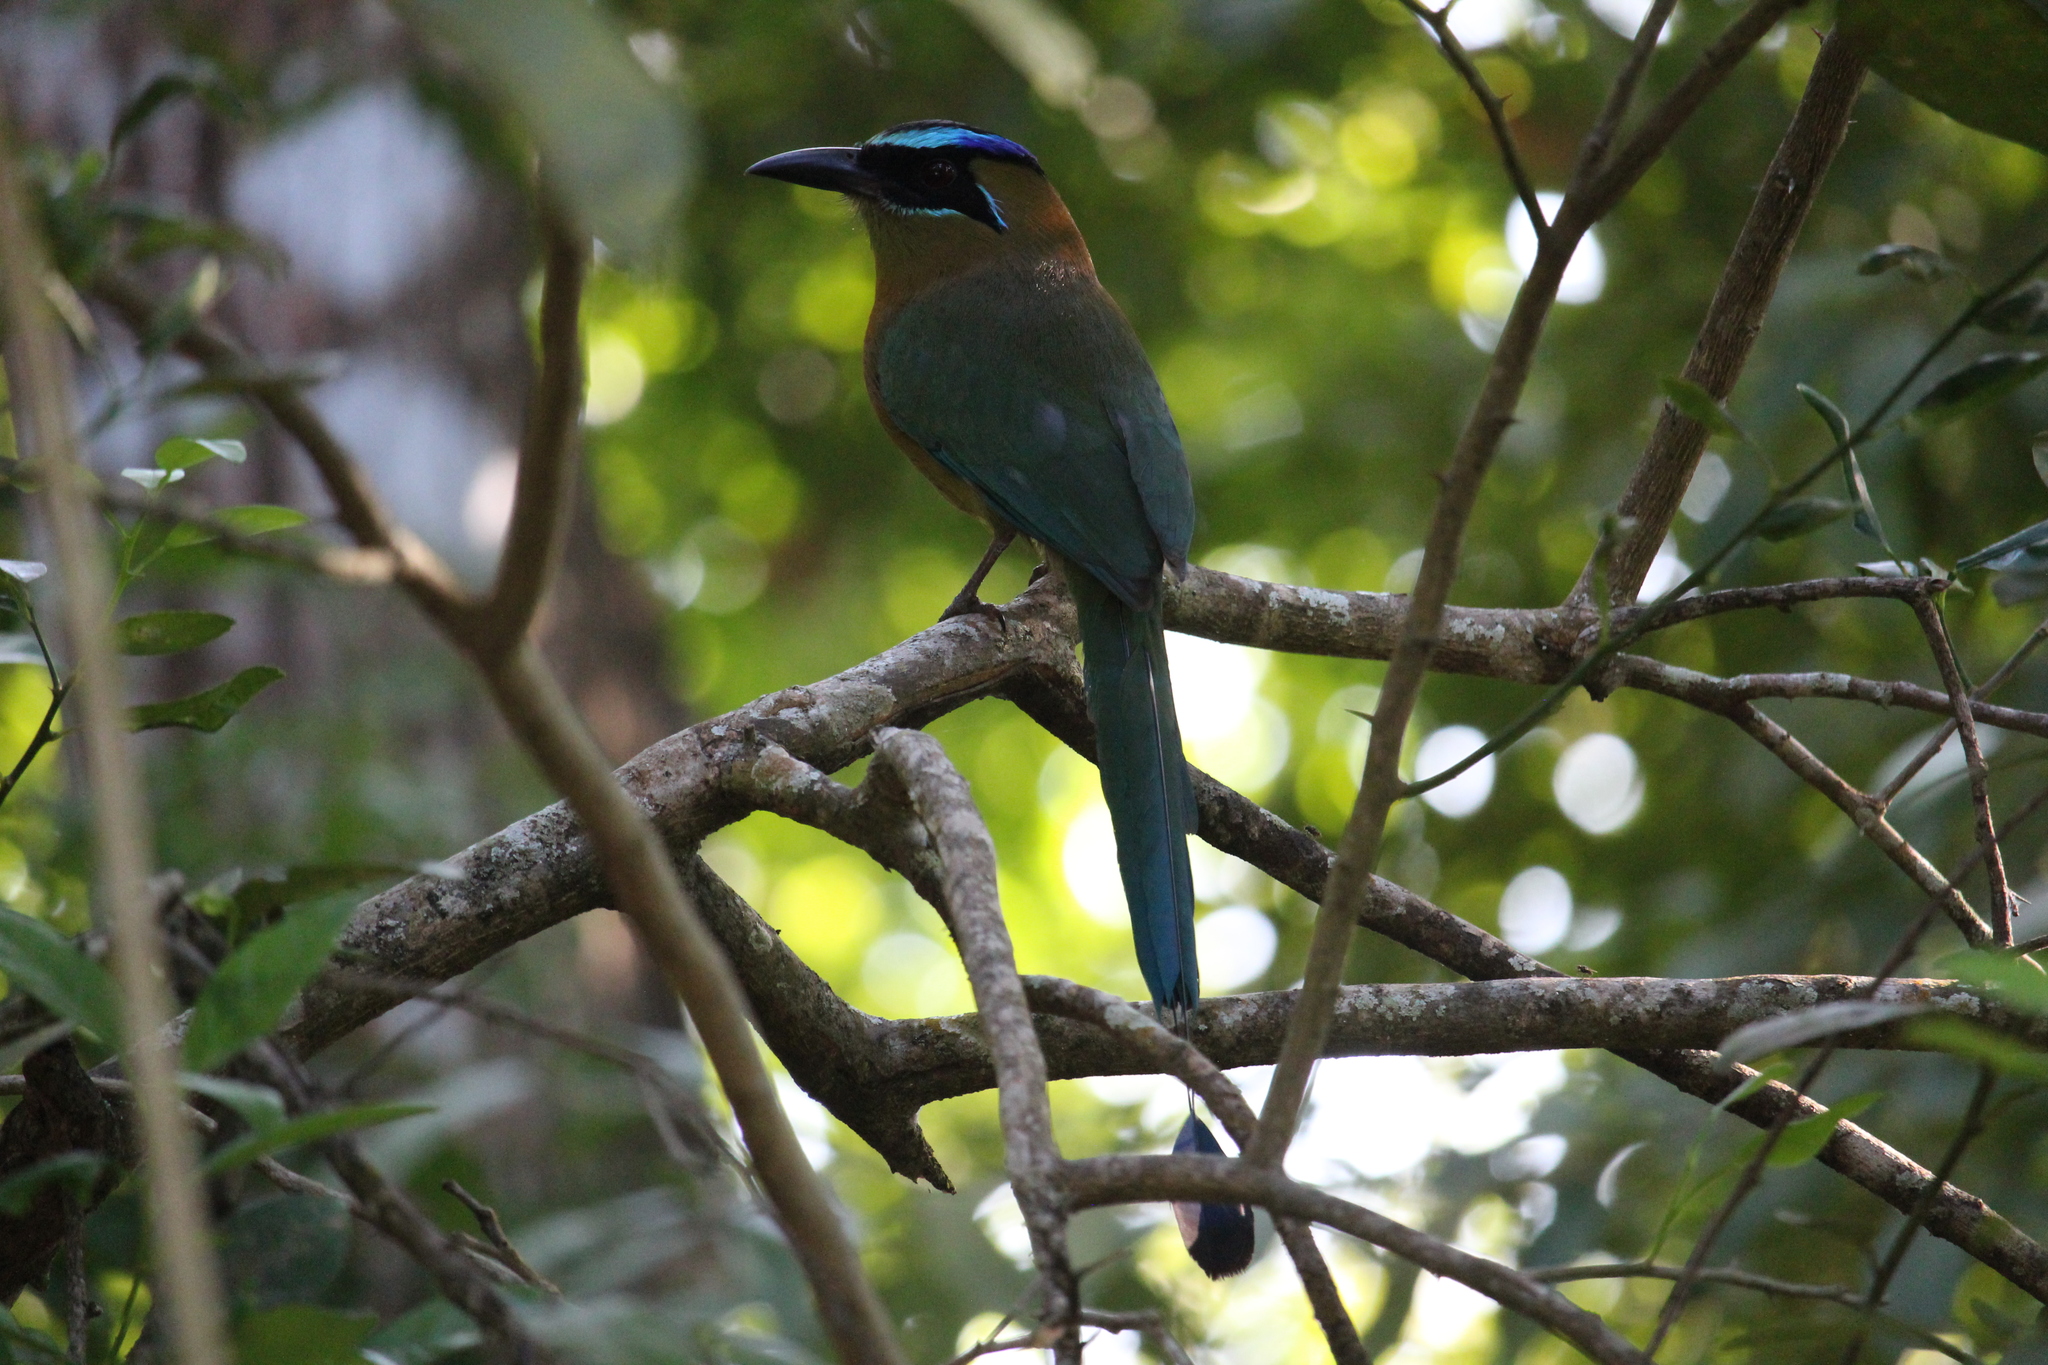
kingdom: Animalia
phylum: Chordata
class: Aves
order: Coraciiformes
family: Momotidae
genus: Momotus
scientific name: Momotus lessonii
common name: Lesson's motmot
